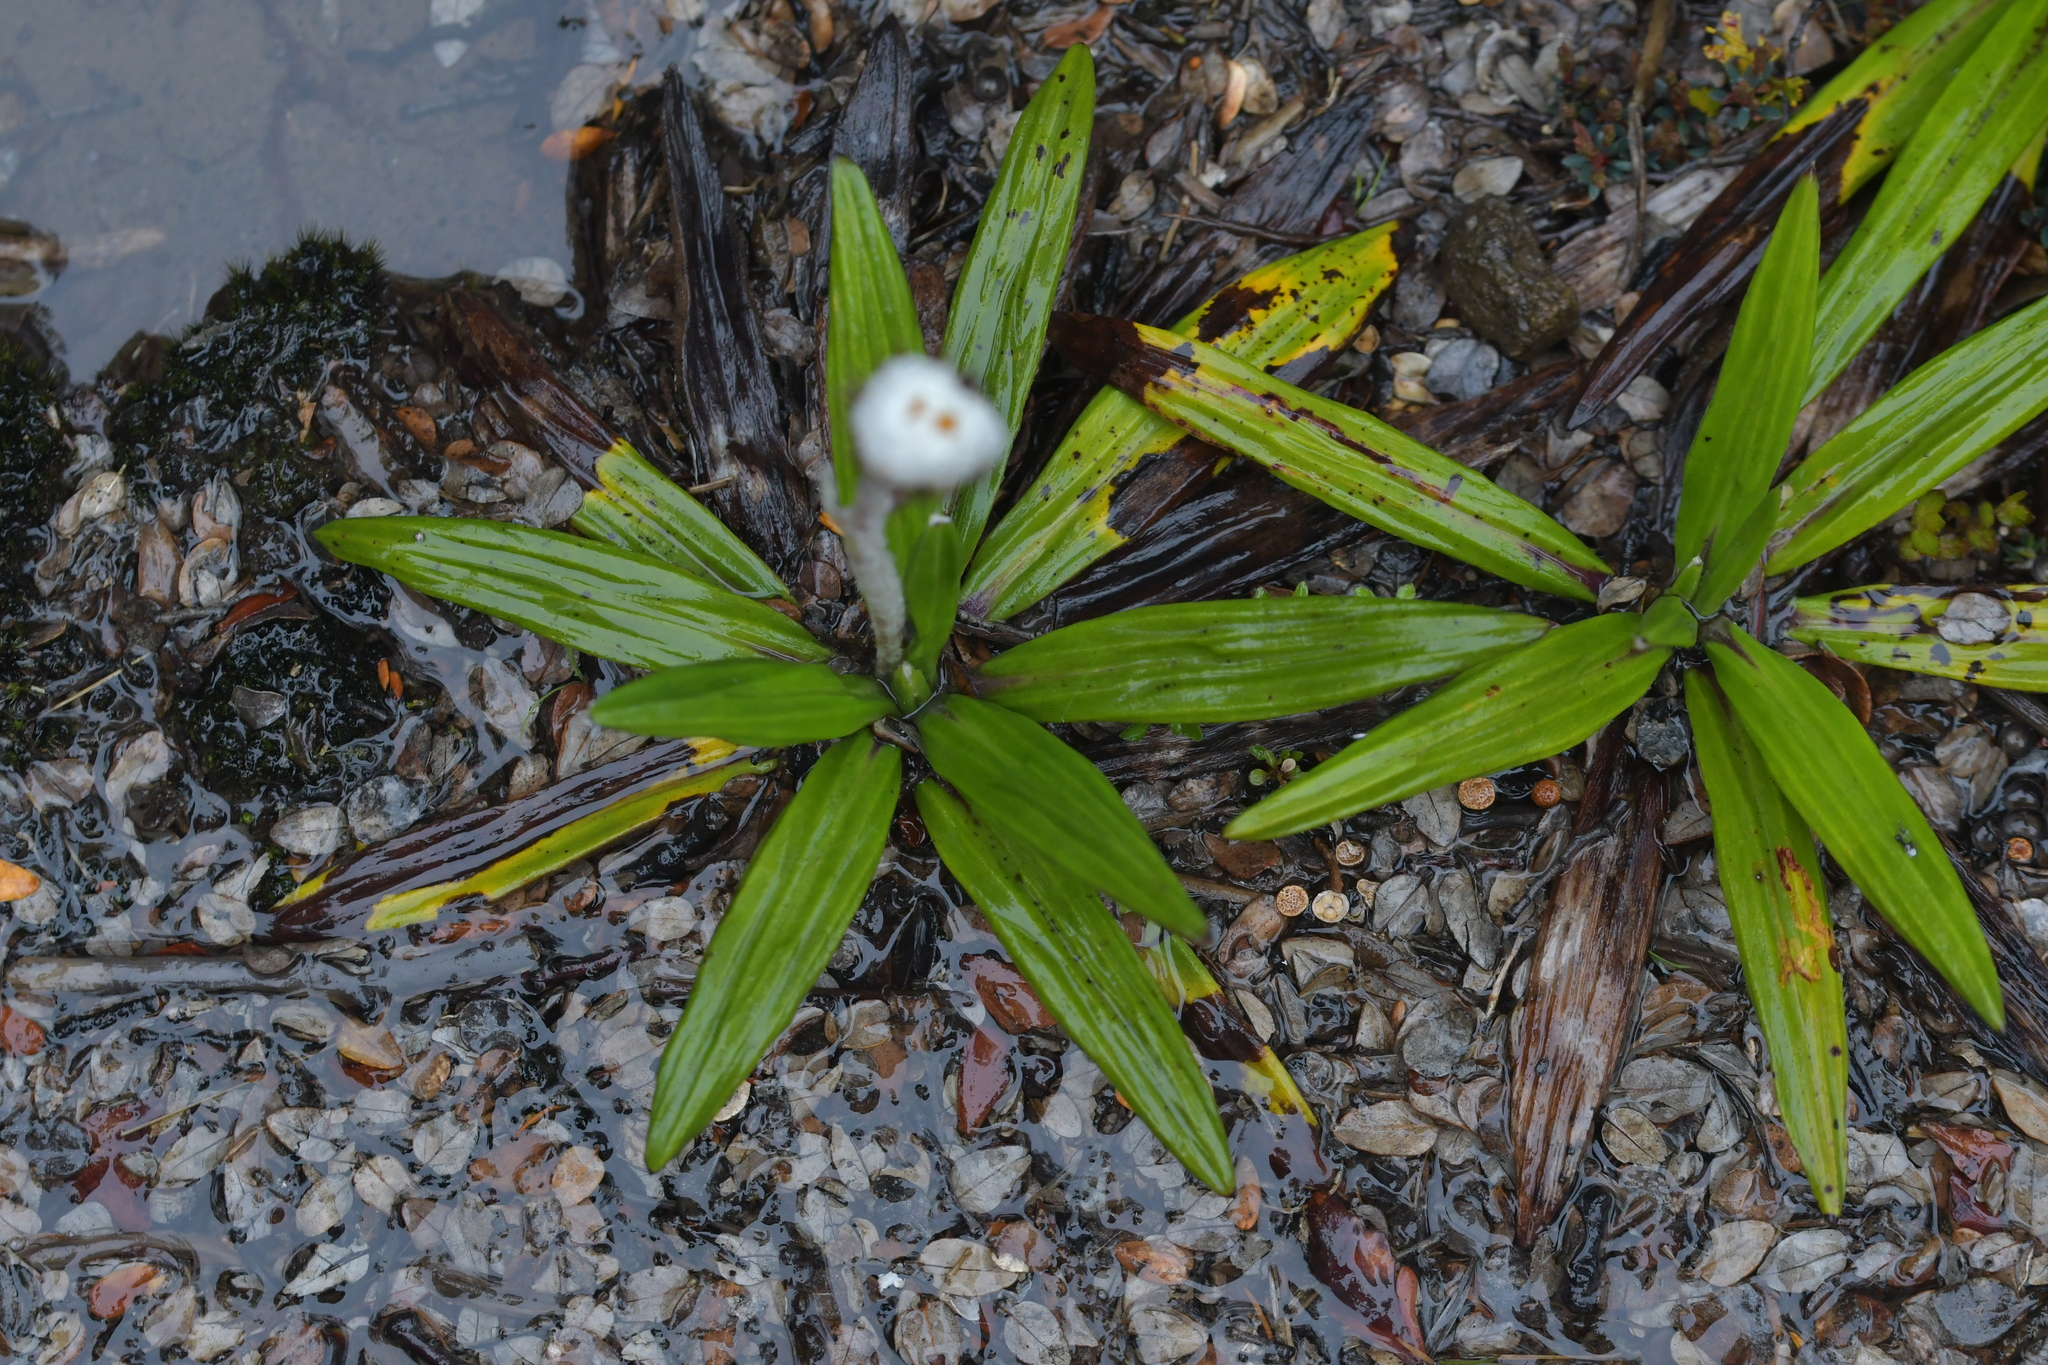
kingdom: Plantae
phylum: Tracheophyta
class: Magnoliopsida
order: Asterales
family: Asteraceae
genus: Celmisia
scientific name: Celmisia spectabilis
